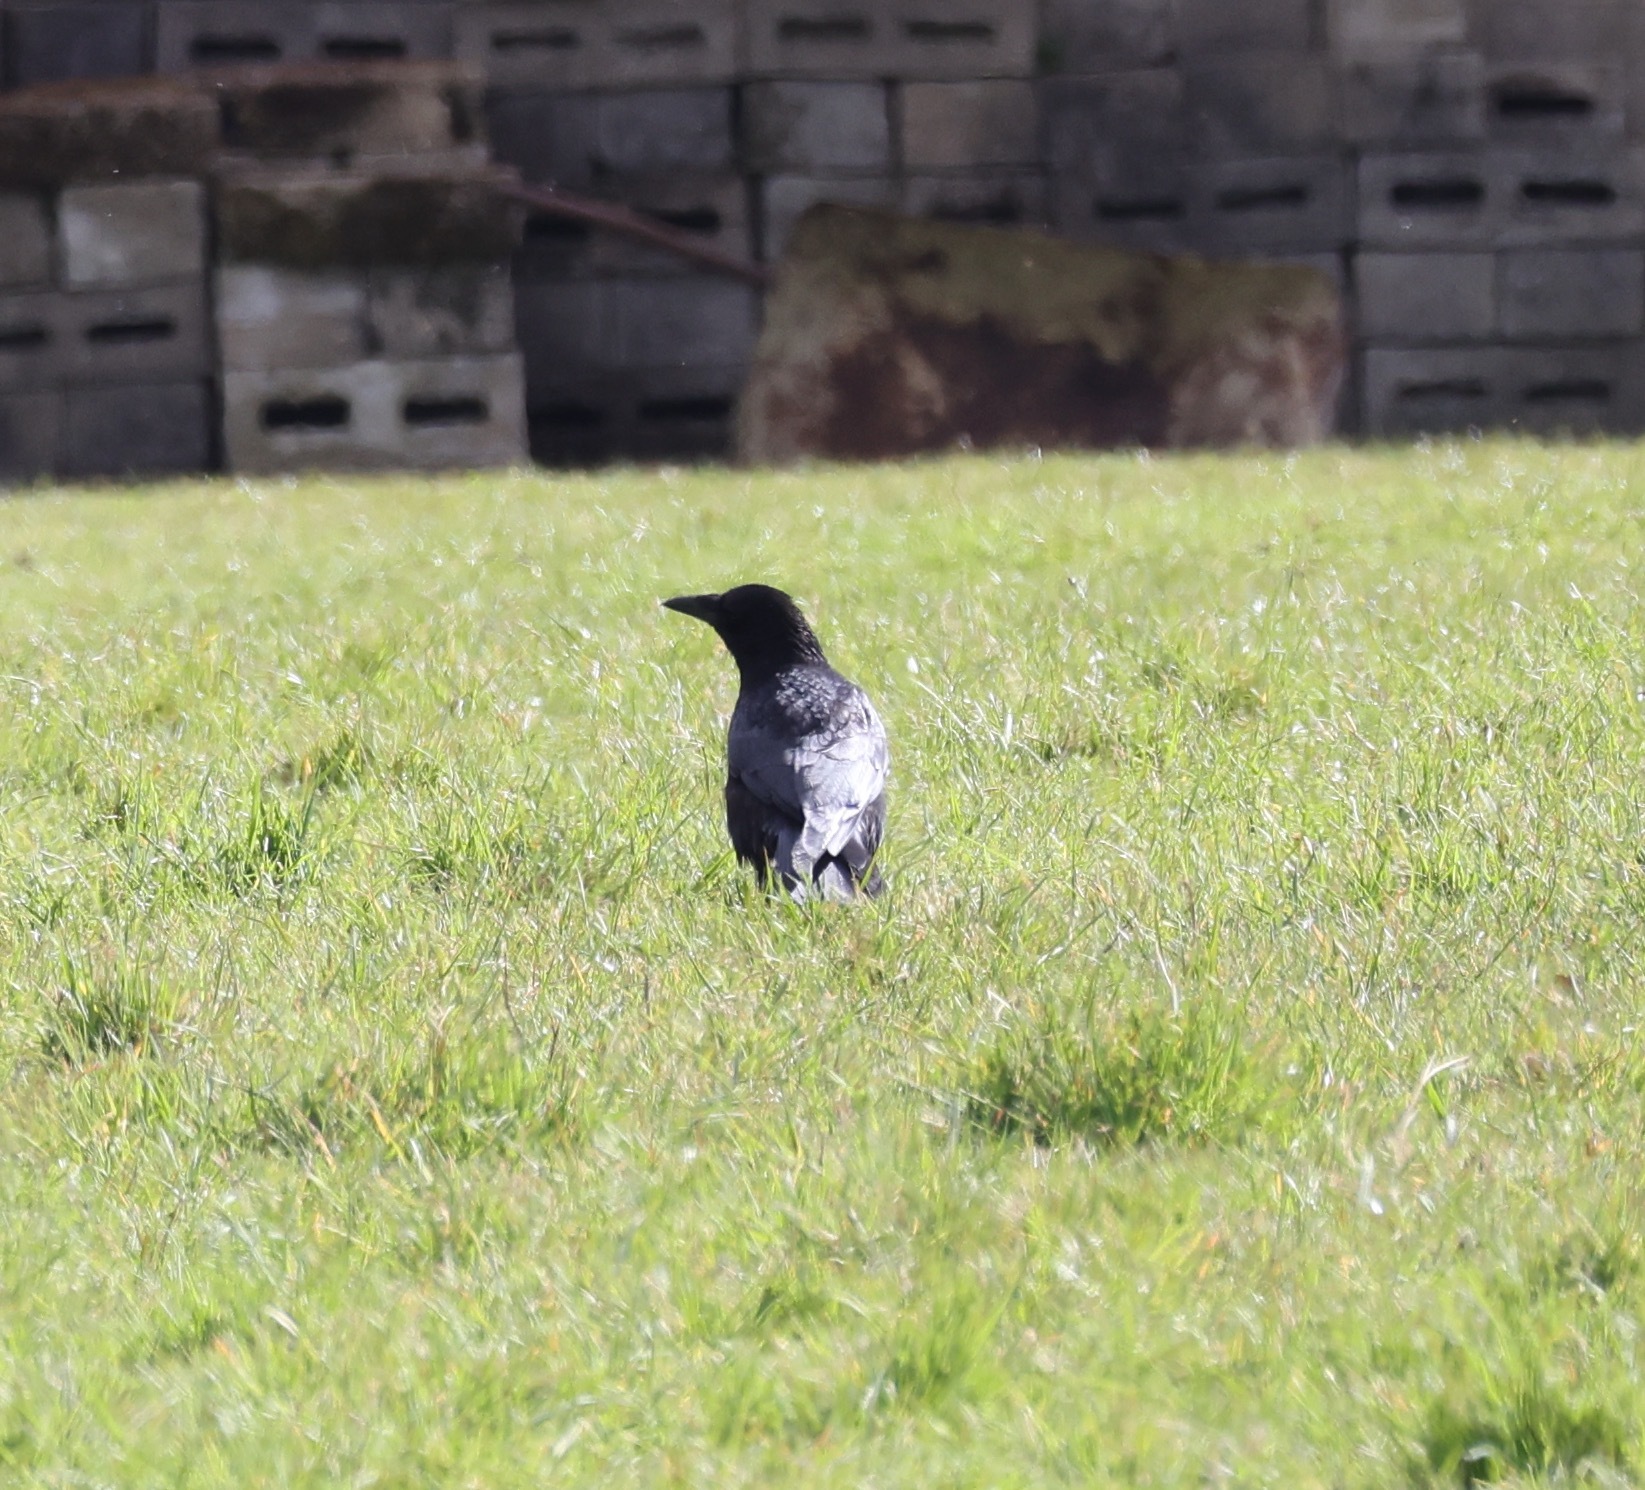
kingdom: Animalia
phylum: Chordata
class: Aves
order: Passeriformes
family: Corvidae
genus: Corvus
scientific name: Corvus corone
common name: Carrion crow
